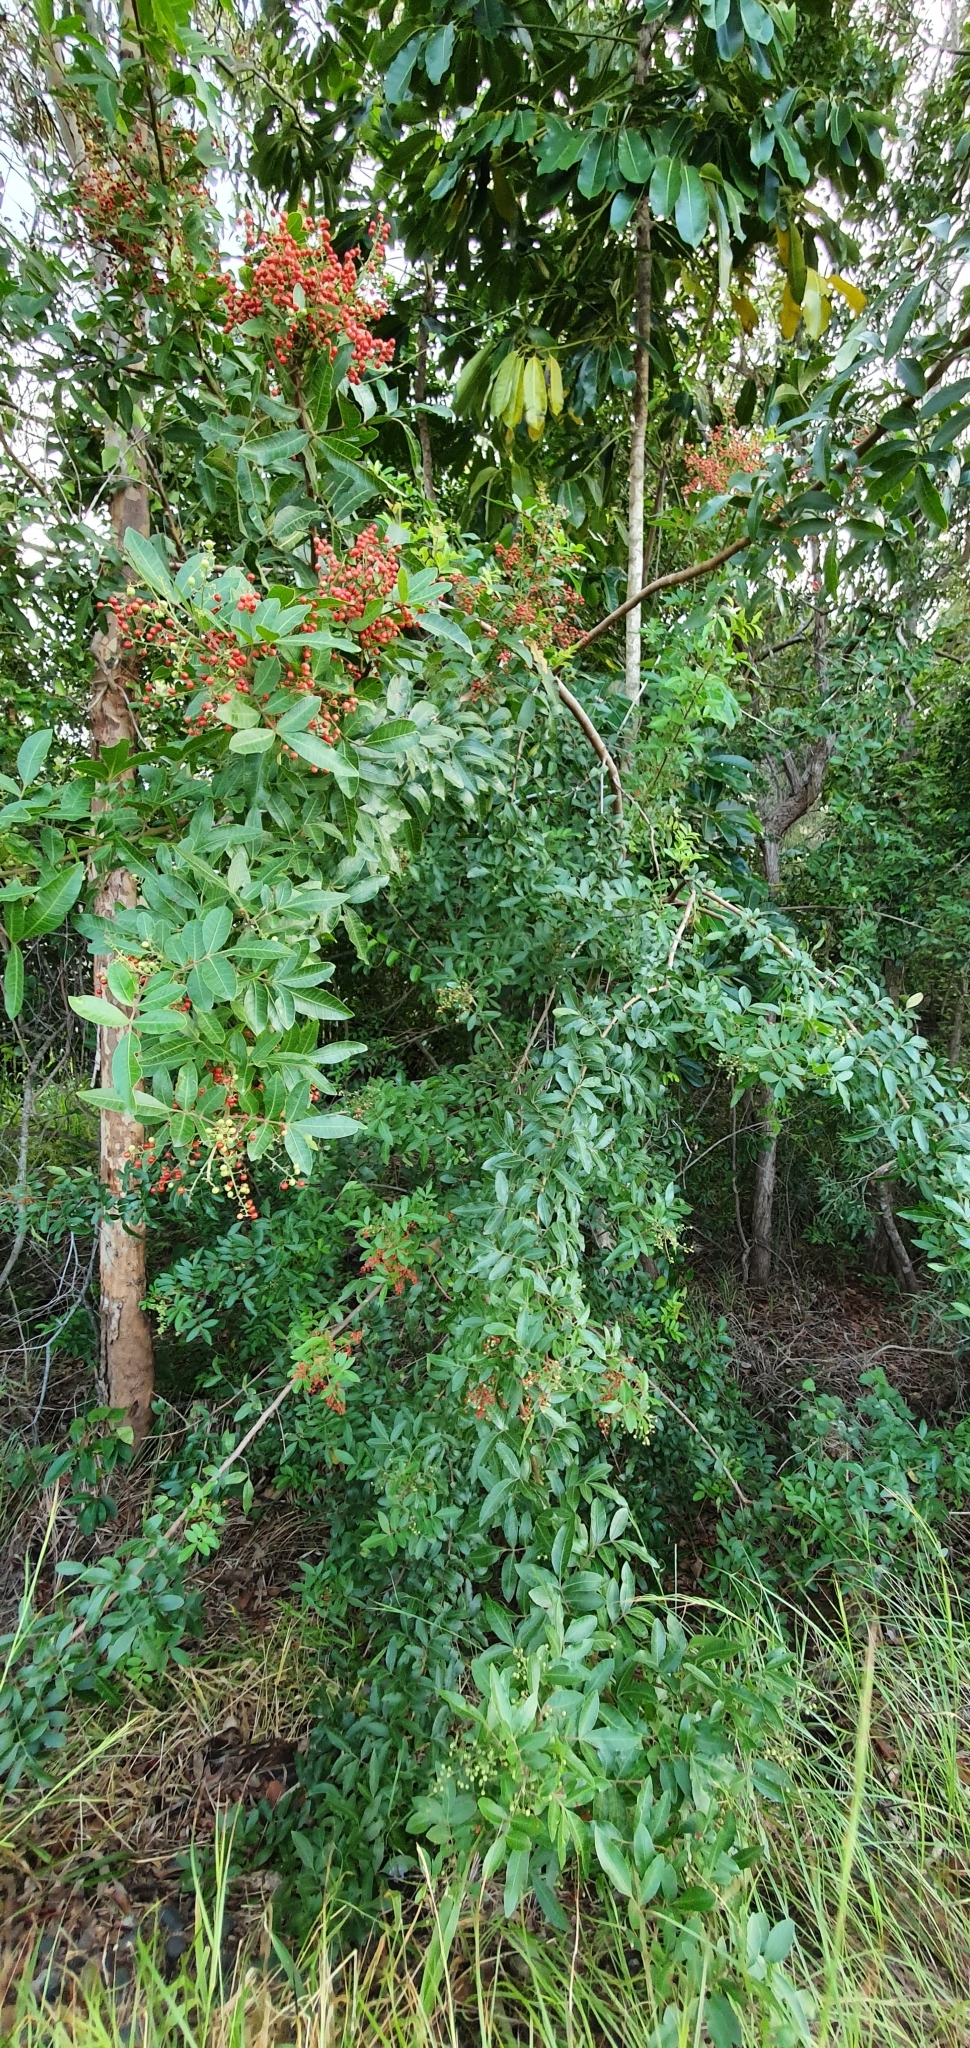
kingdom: Plantae
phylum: Tracheophyta
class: Magnoliopsida
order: Sapindales
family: Anacardiaceae
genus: Schinus
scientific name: Schinus terebinthifolia
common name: Brazilian peppertree
